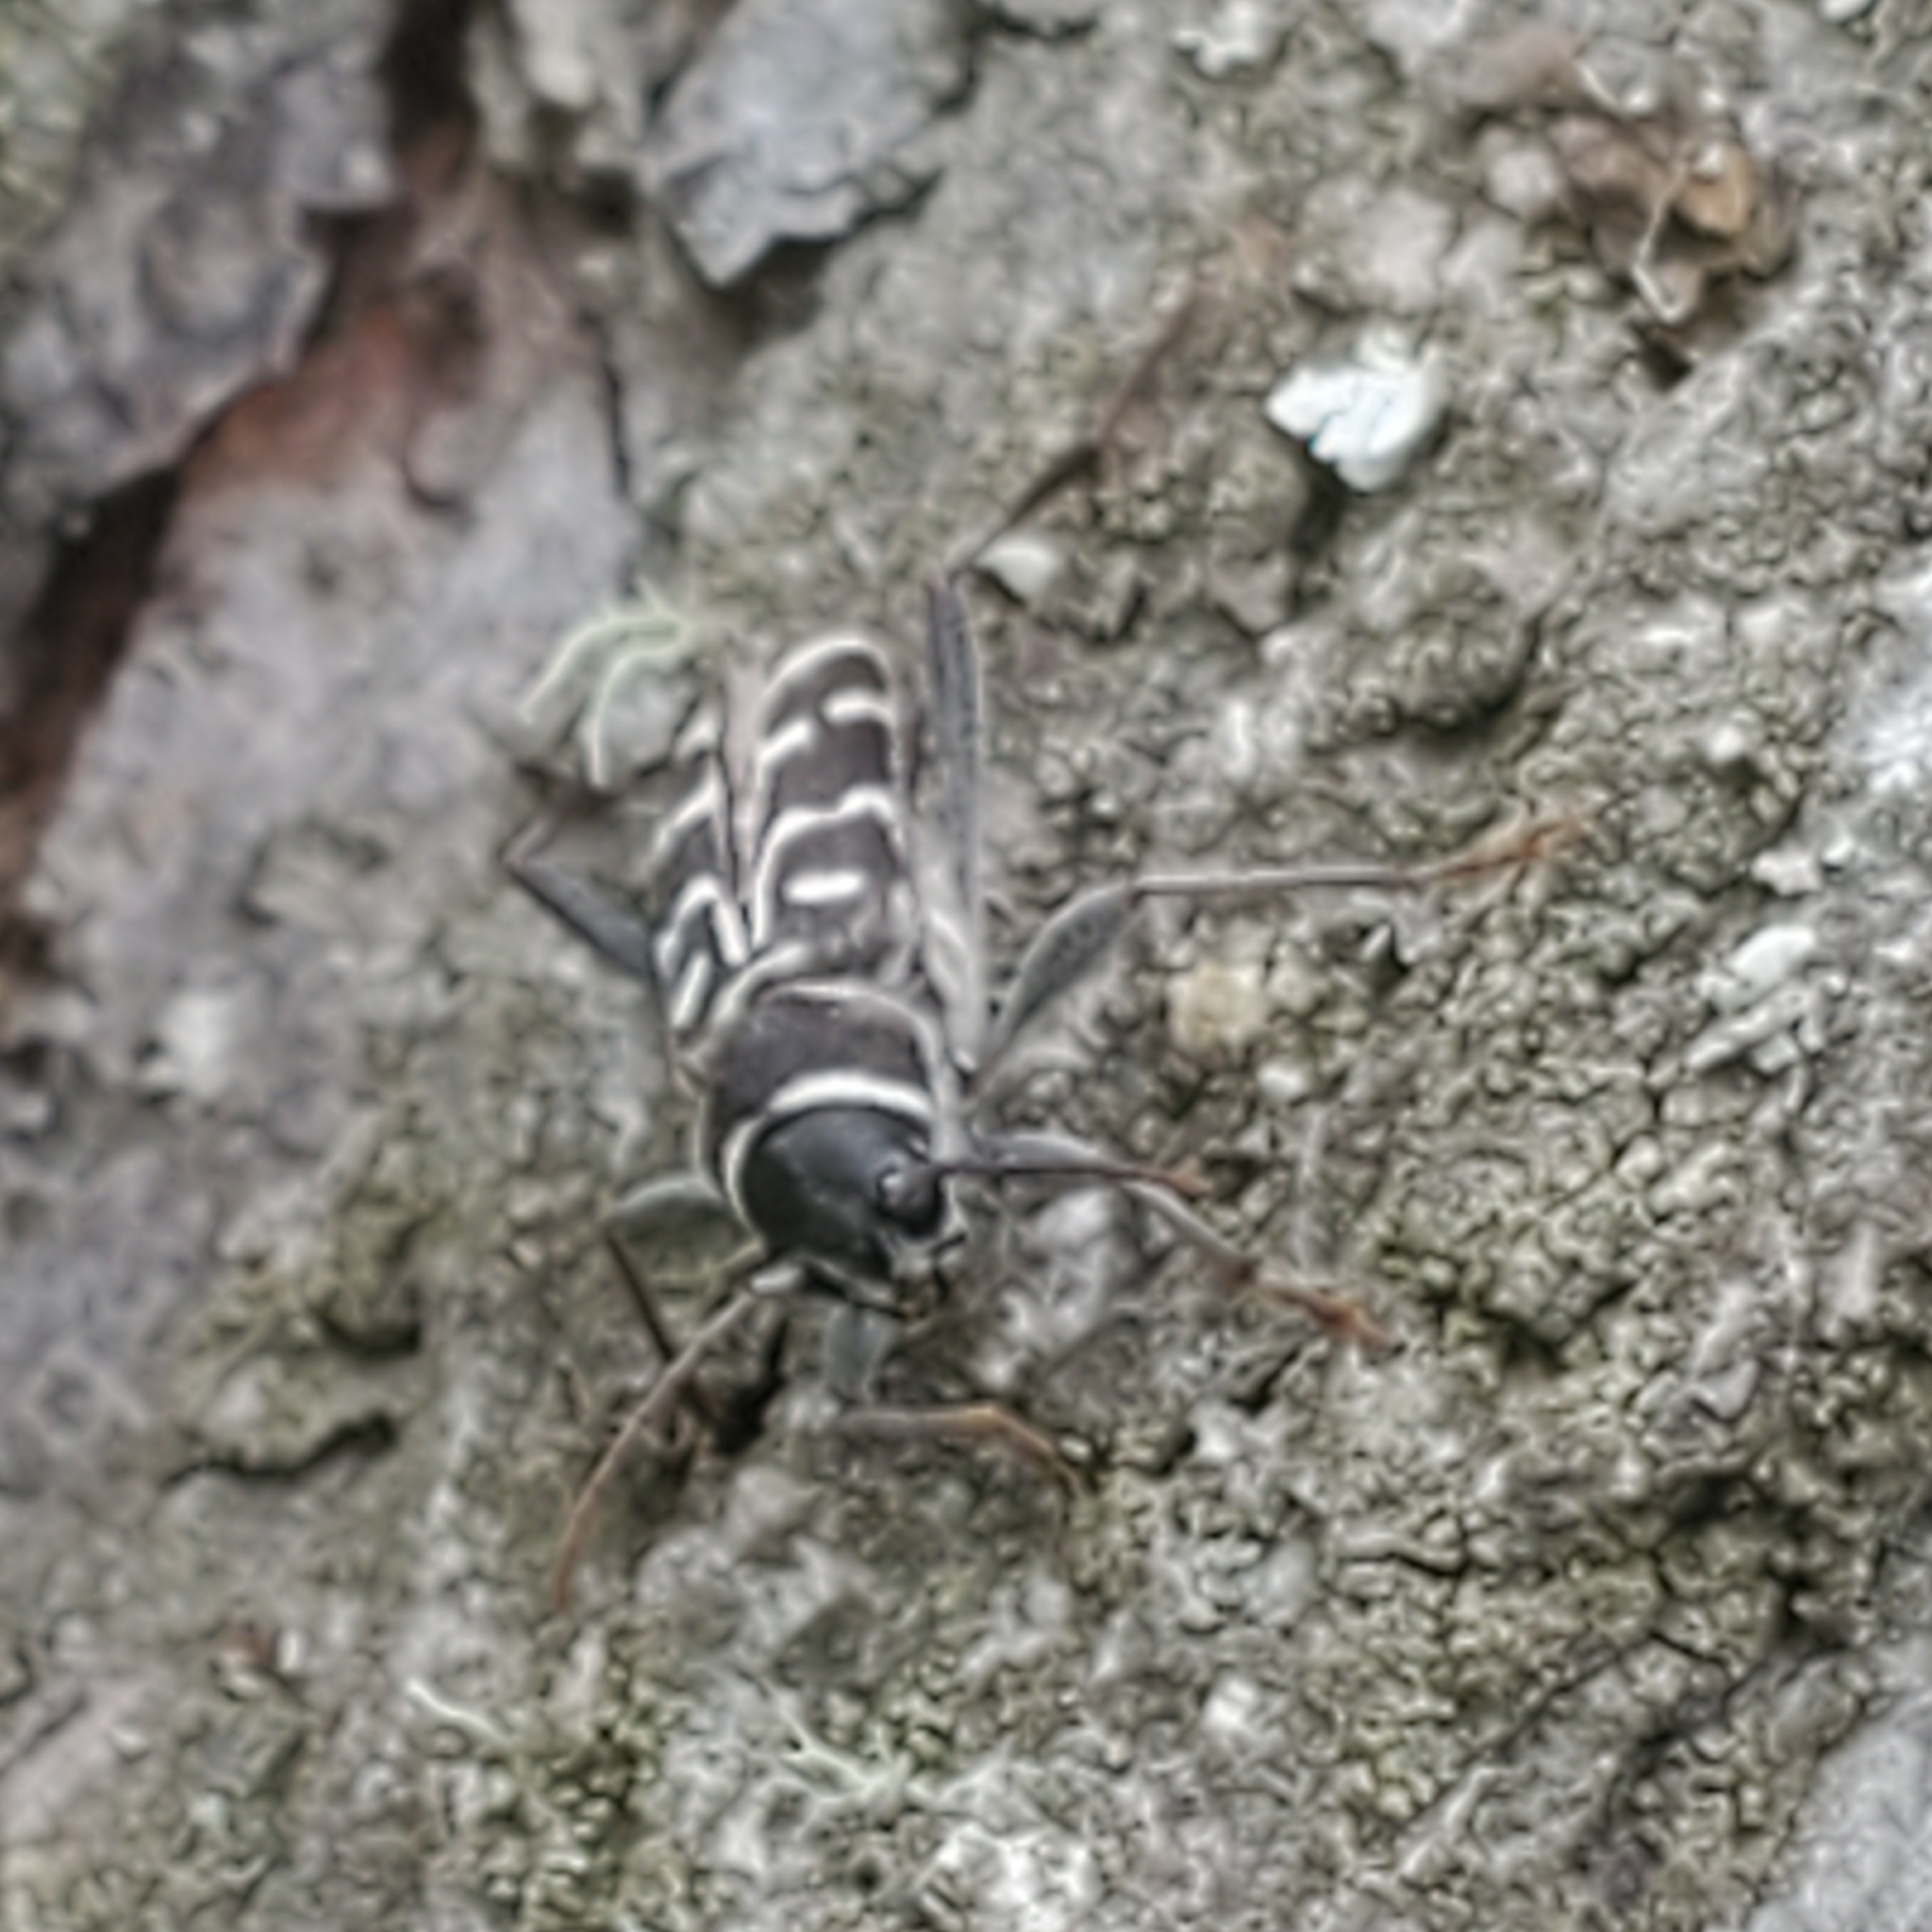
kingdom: Animalia
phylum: Arthropoda
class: Insecta
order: Coleoptera
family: Cerambycidae
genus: Xylotrechus
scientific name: Xylotrechus undulatus
